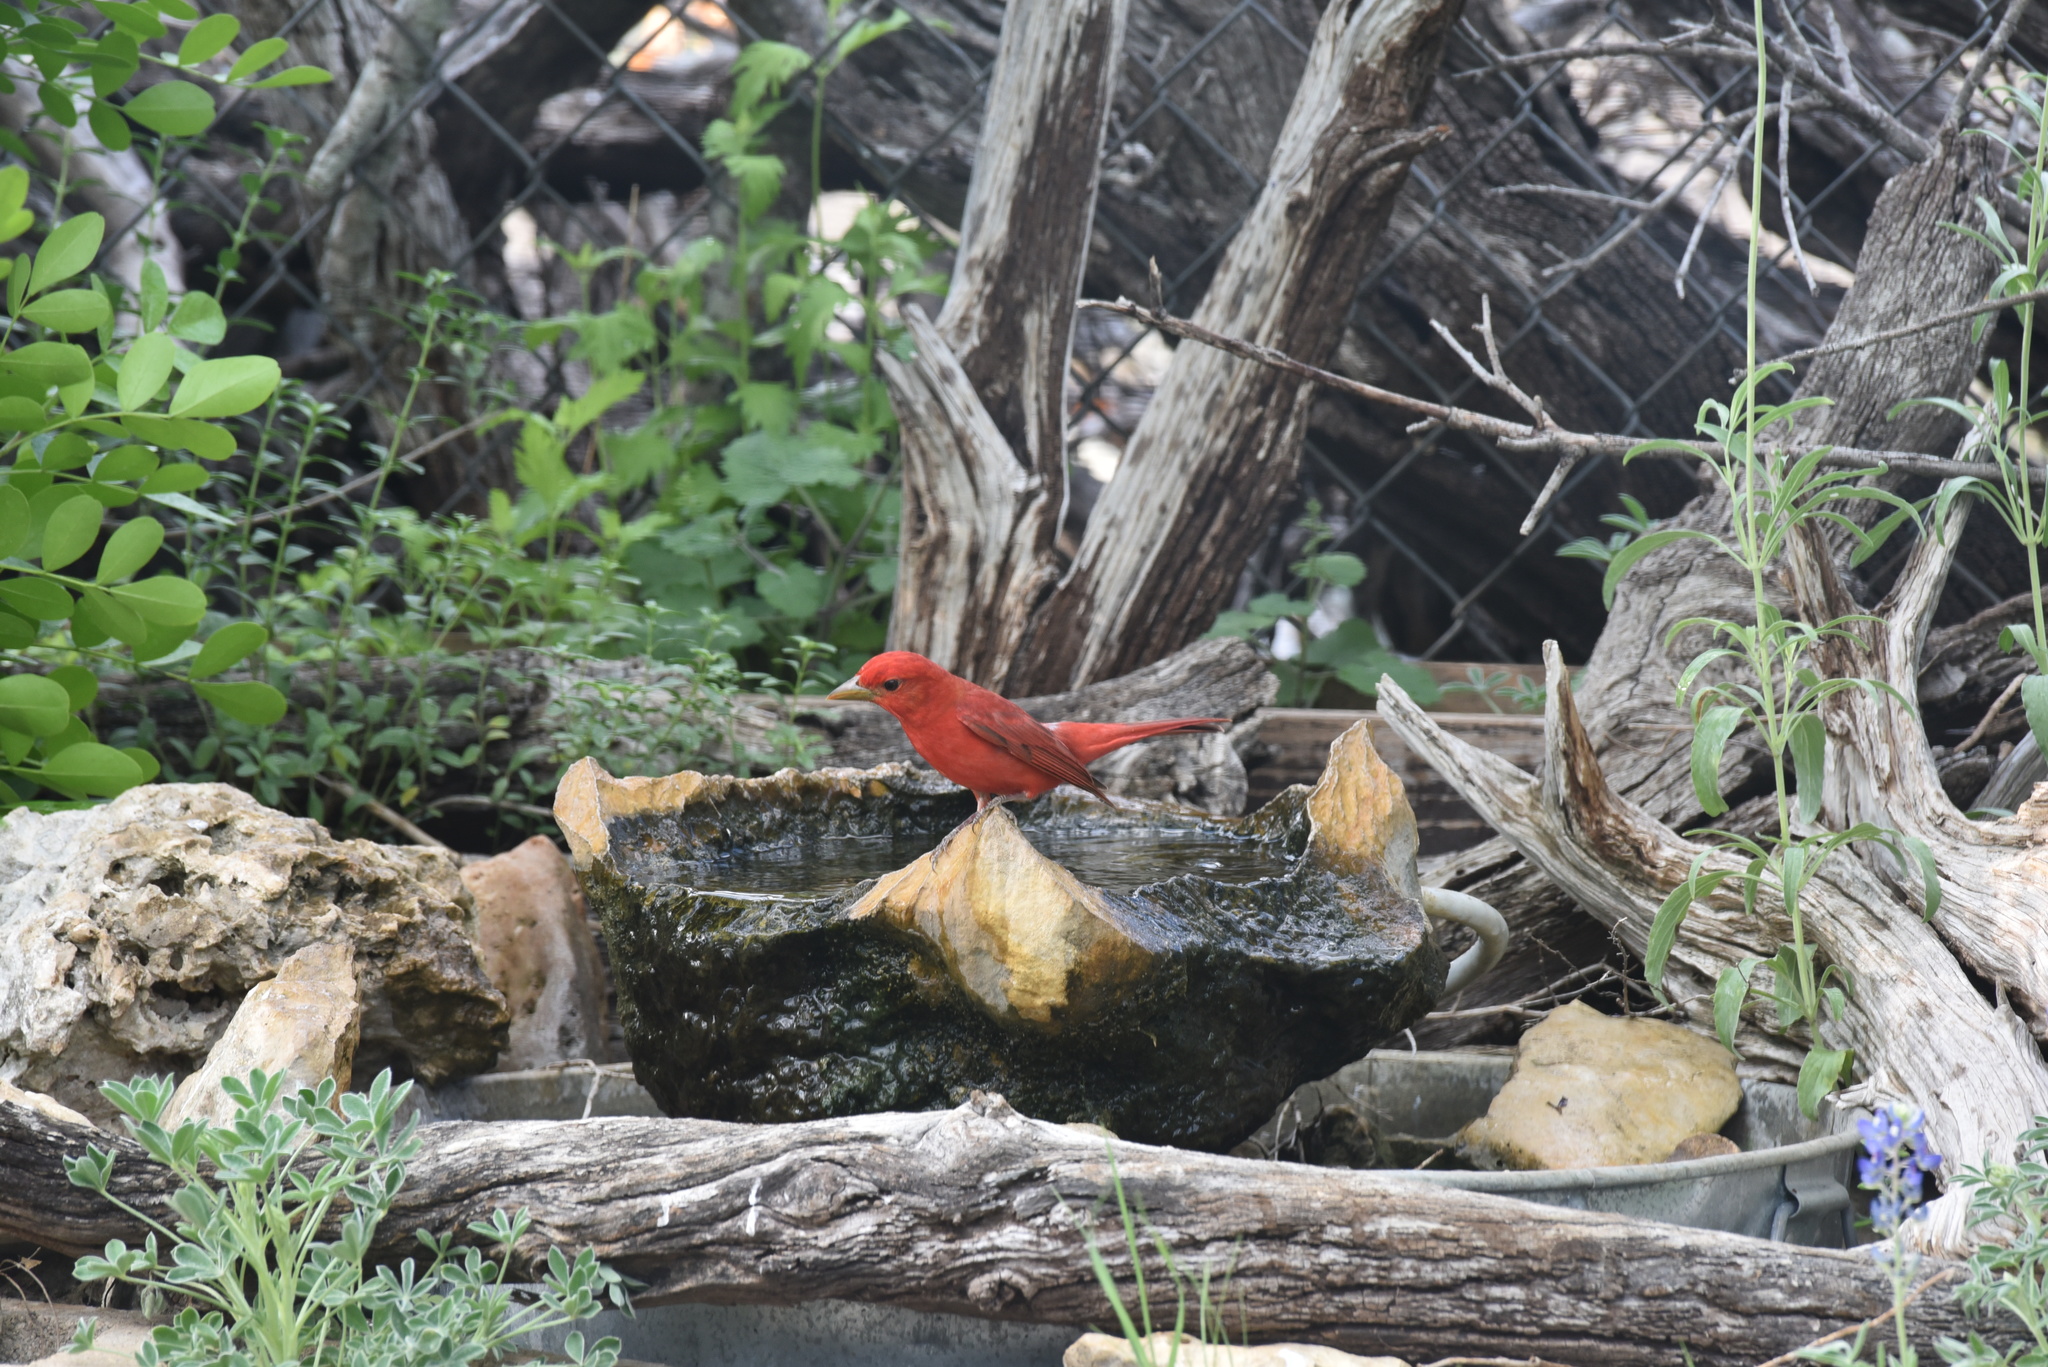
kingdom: Animalia
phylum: Chordata
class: Aves
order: Passeriformes
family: Cardinalidae
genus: Piranga
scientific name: Piranga rubra
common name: Summer tanager
